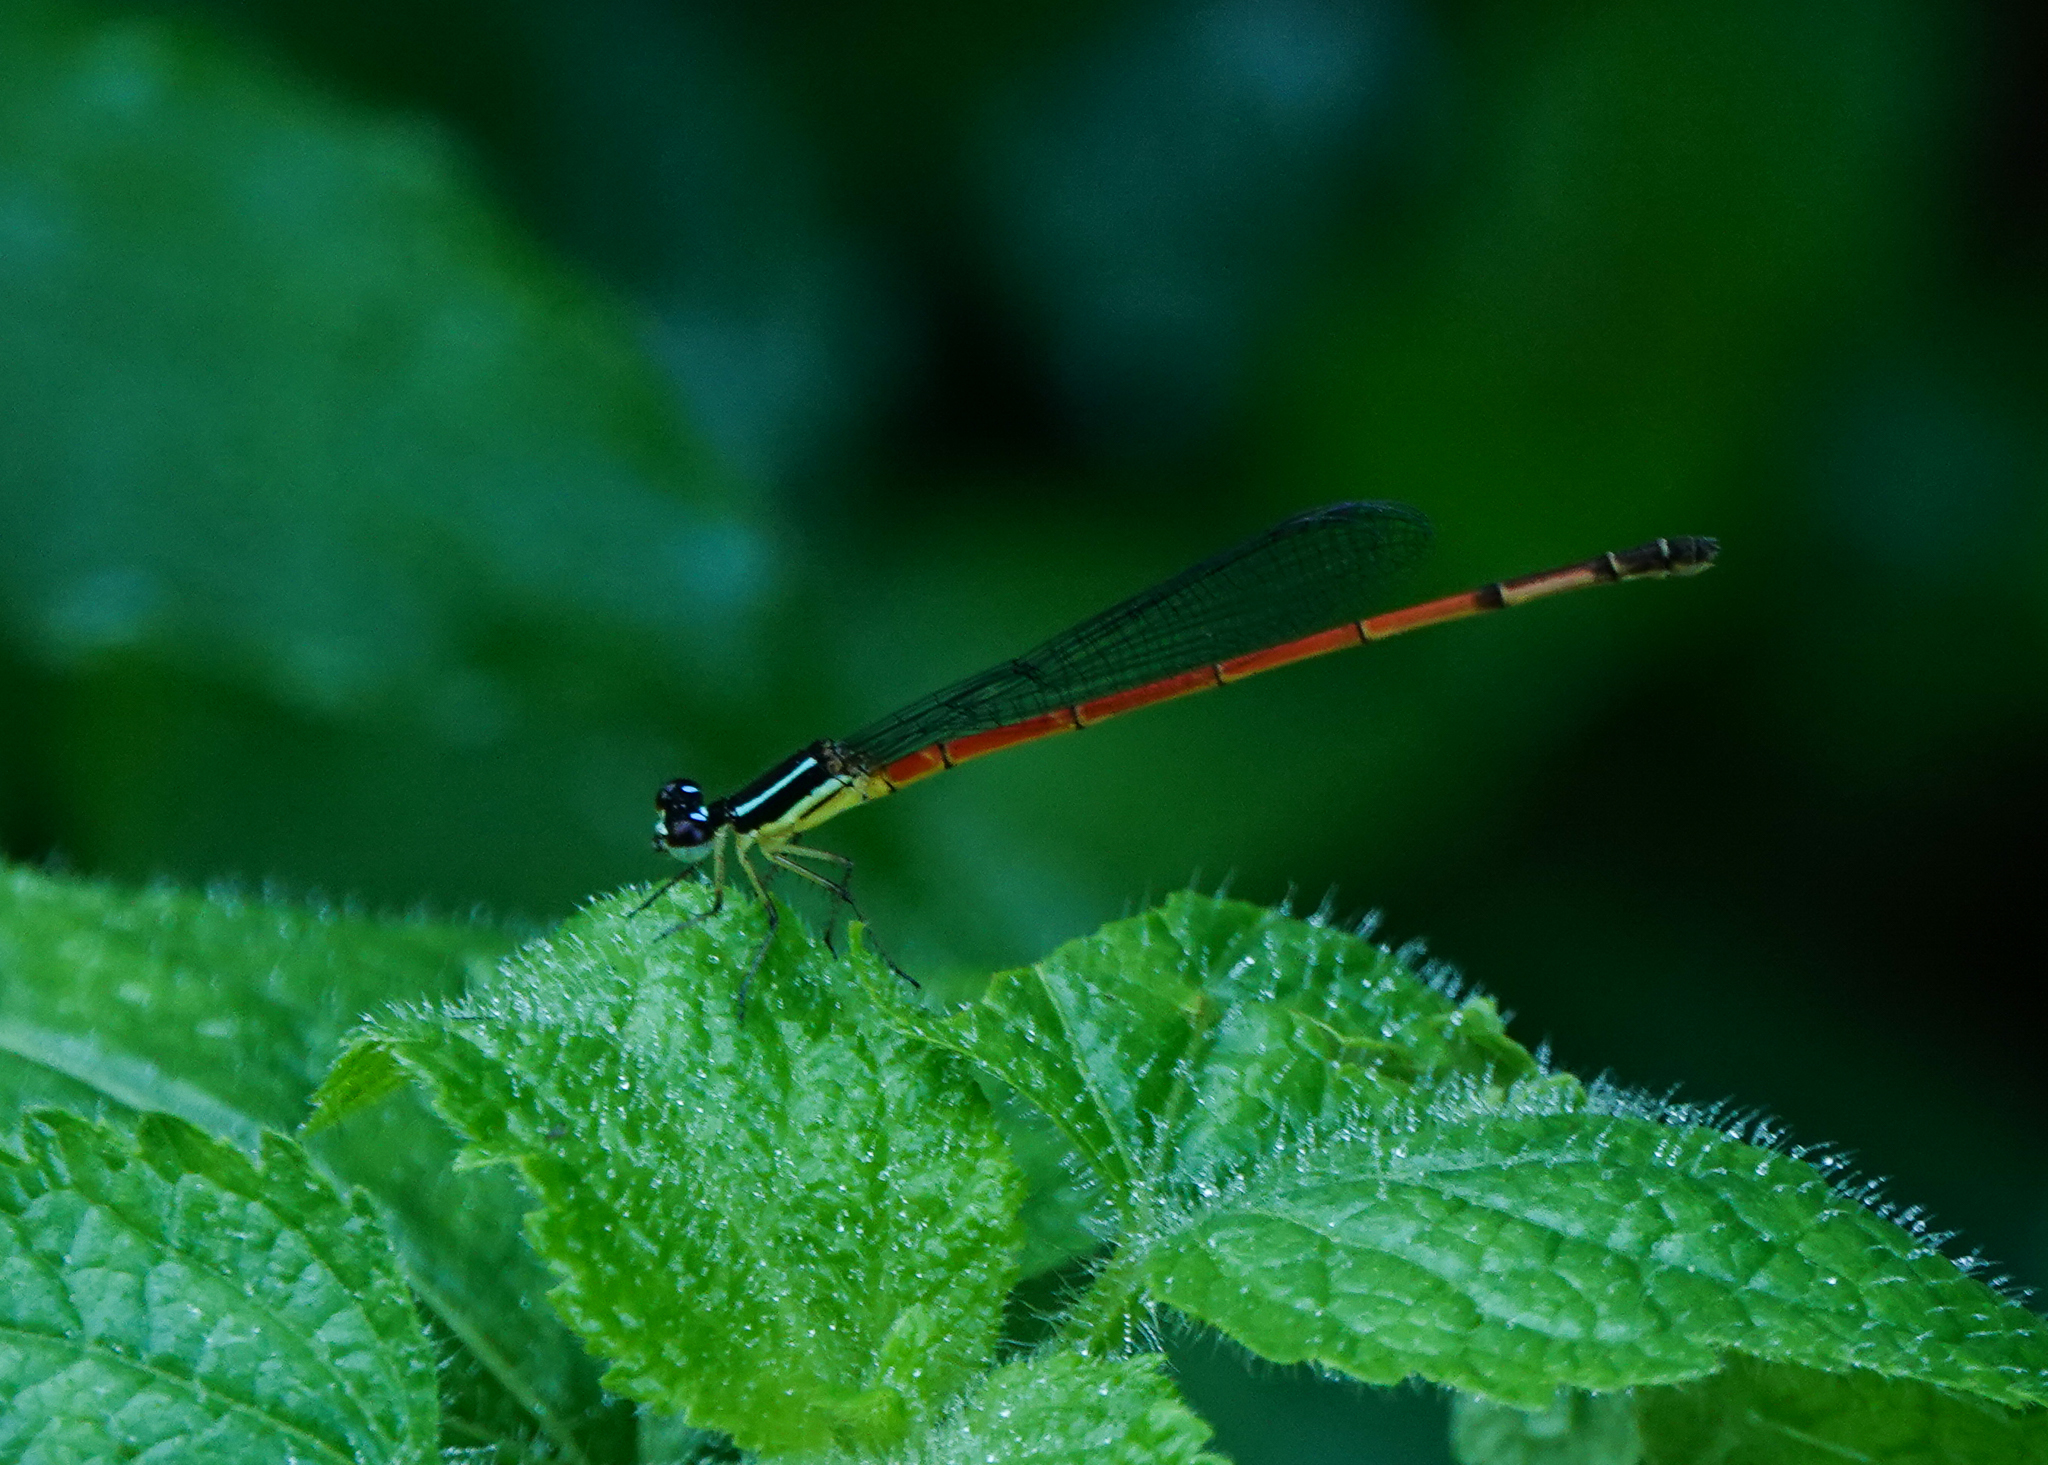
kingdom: Animalia
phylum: Arthropoda
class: Insecta
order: Odonata
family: Coenagrionidae
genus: Mortonagrion
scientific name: Mortonagrion aborense
